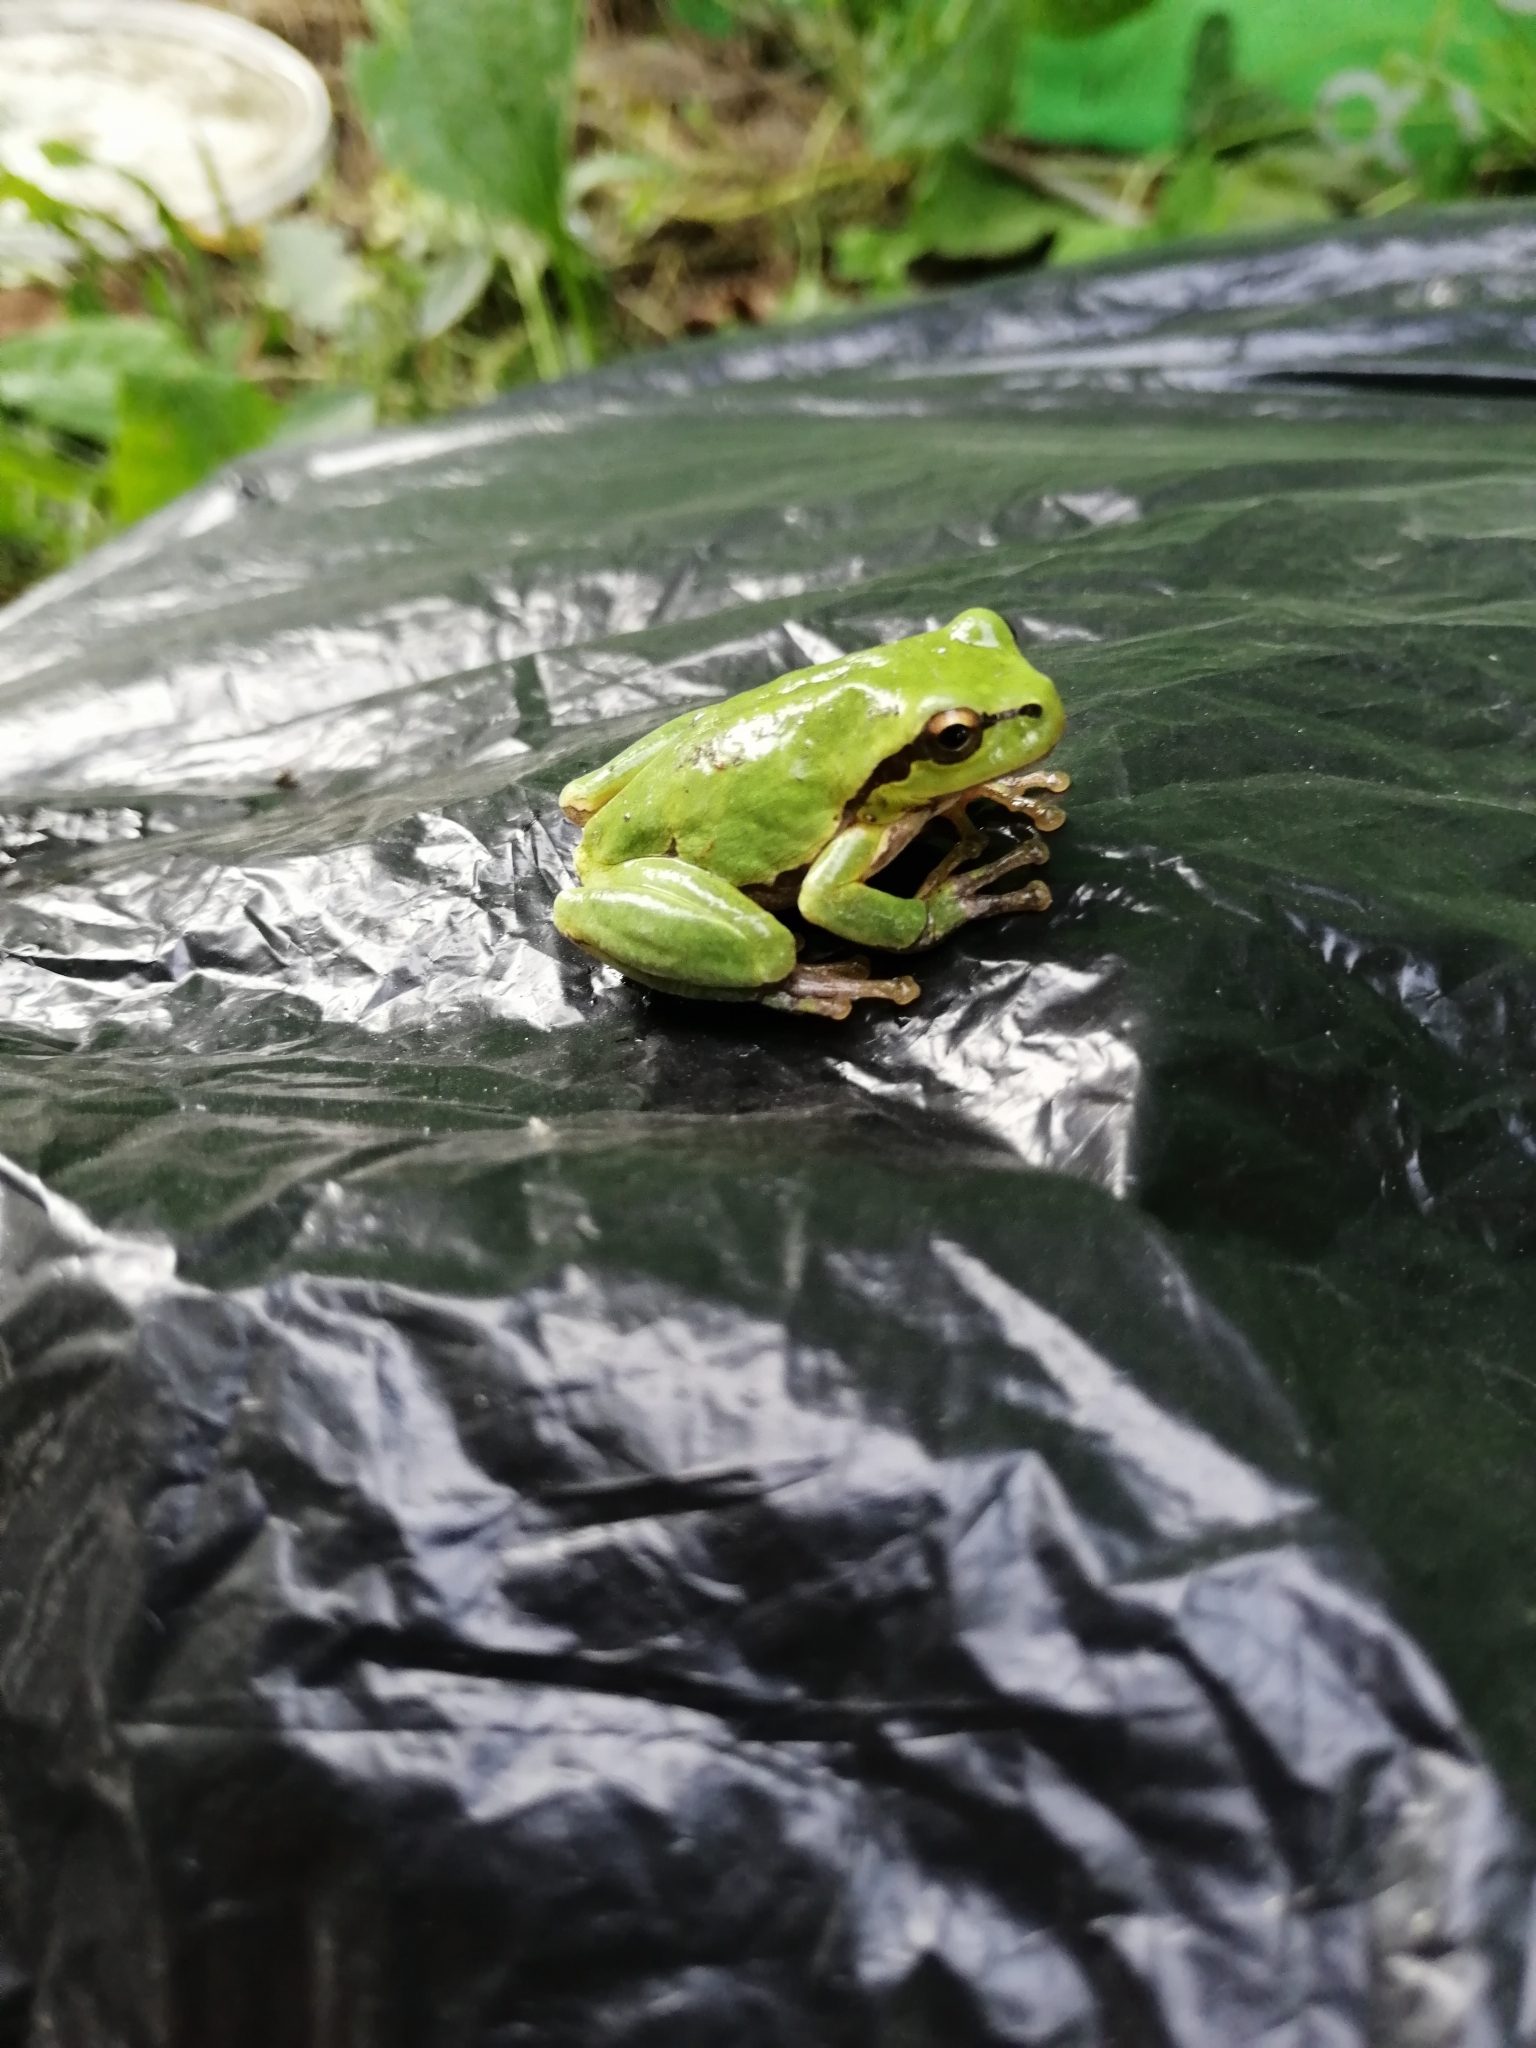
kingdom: Animalia
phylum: Chordata
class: Amphibia
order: Anura
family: Hylidae
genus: Hyla
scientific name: Hyla orientalis
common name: Caucasian treefrog
